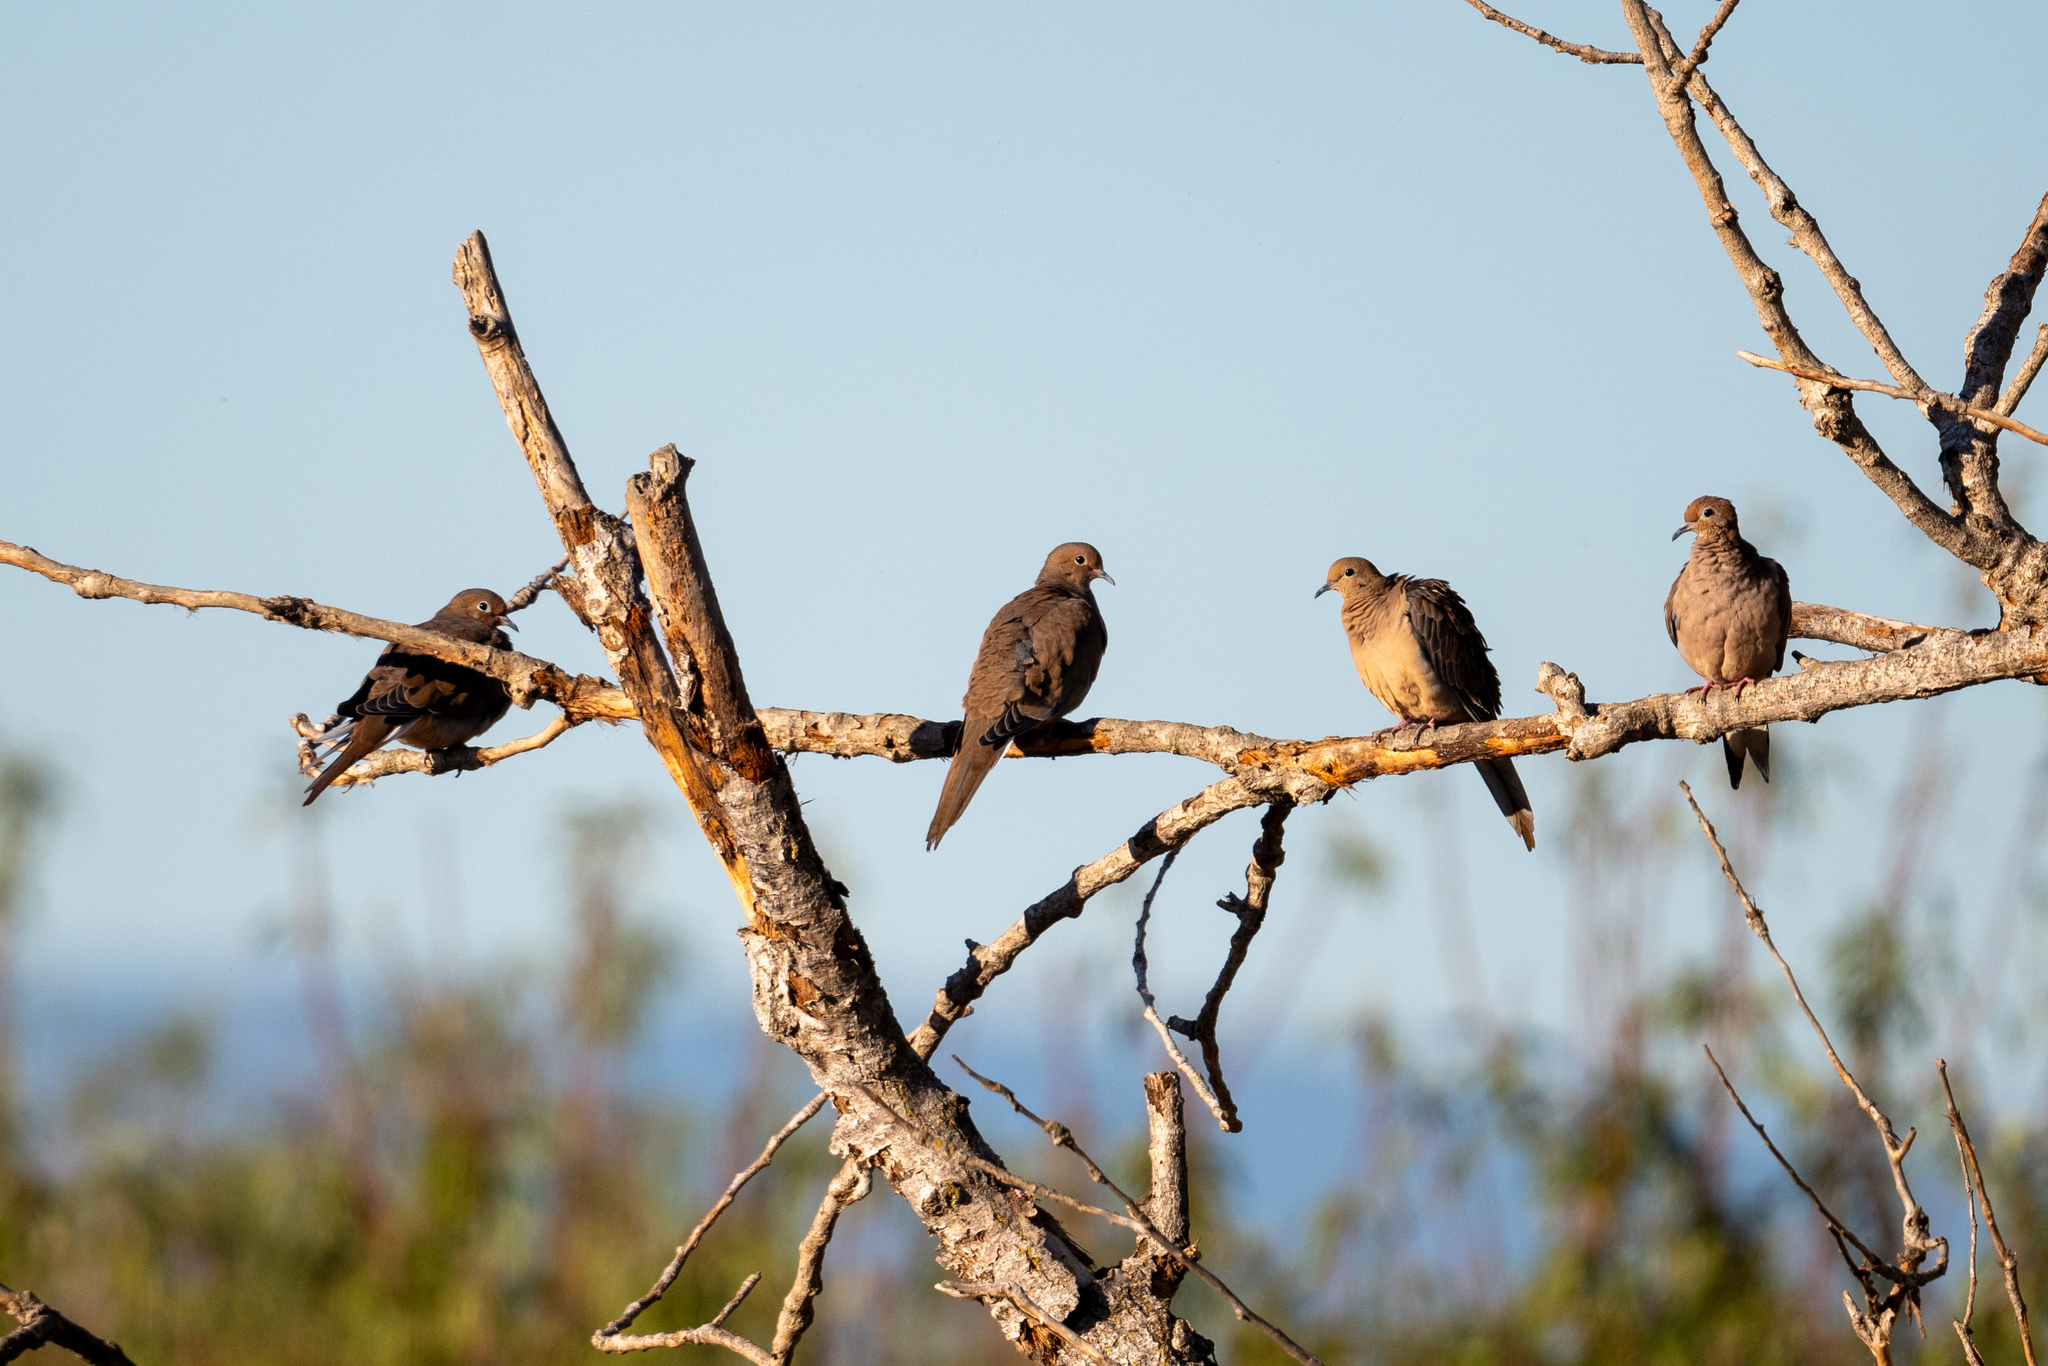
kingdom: Animalia
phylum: Chordata
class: Aves
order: Columbiformes
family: Columbidae
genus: Zenaida
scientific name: Zenaida macroura
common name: Mourning dove
